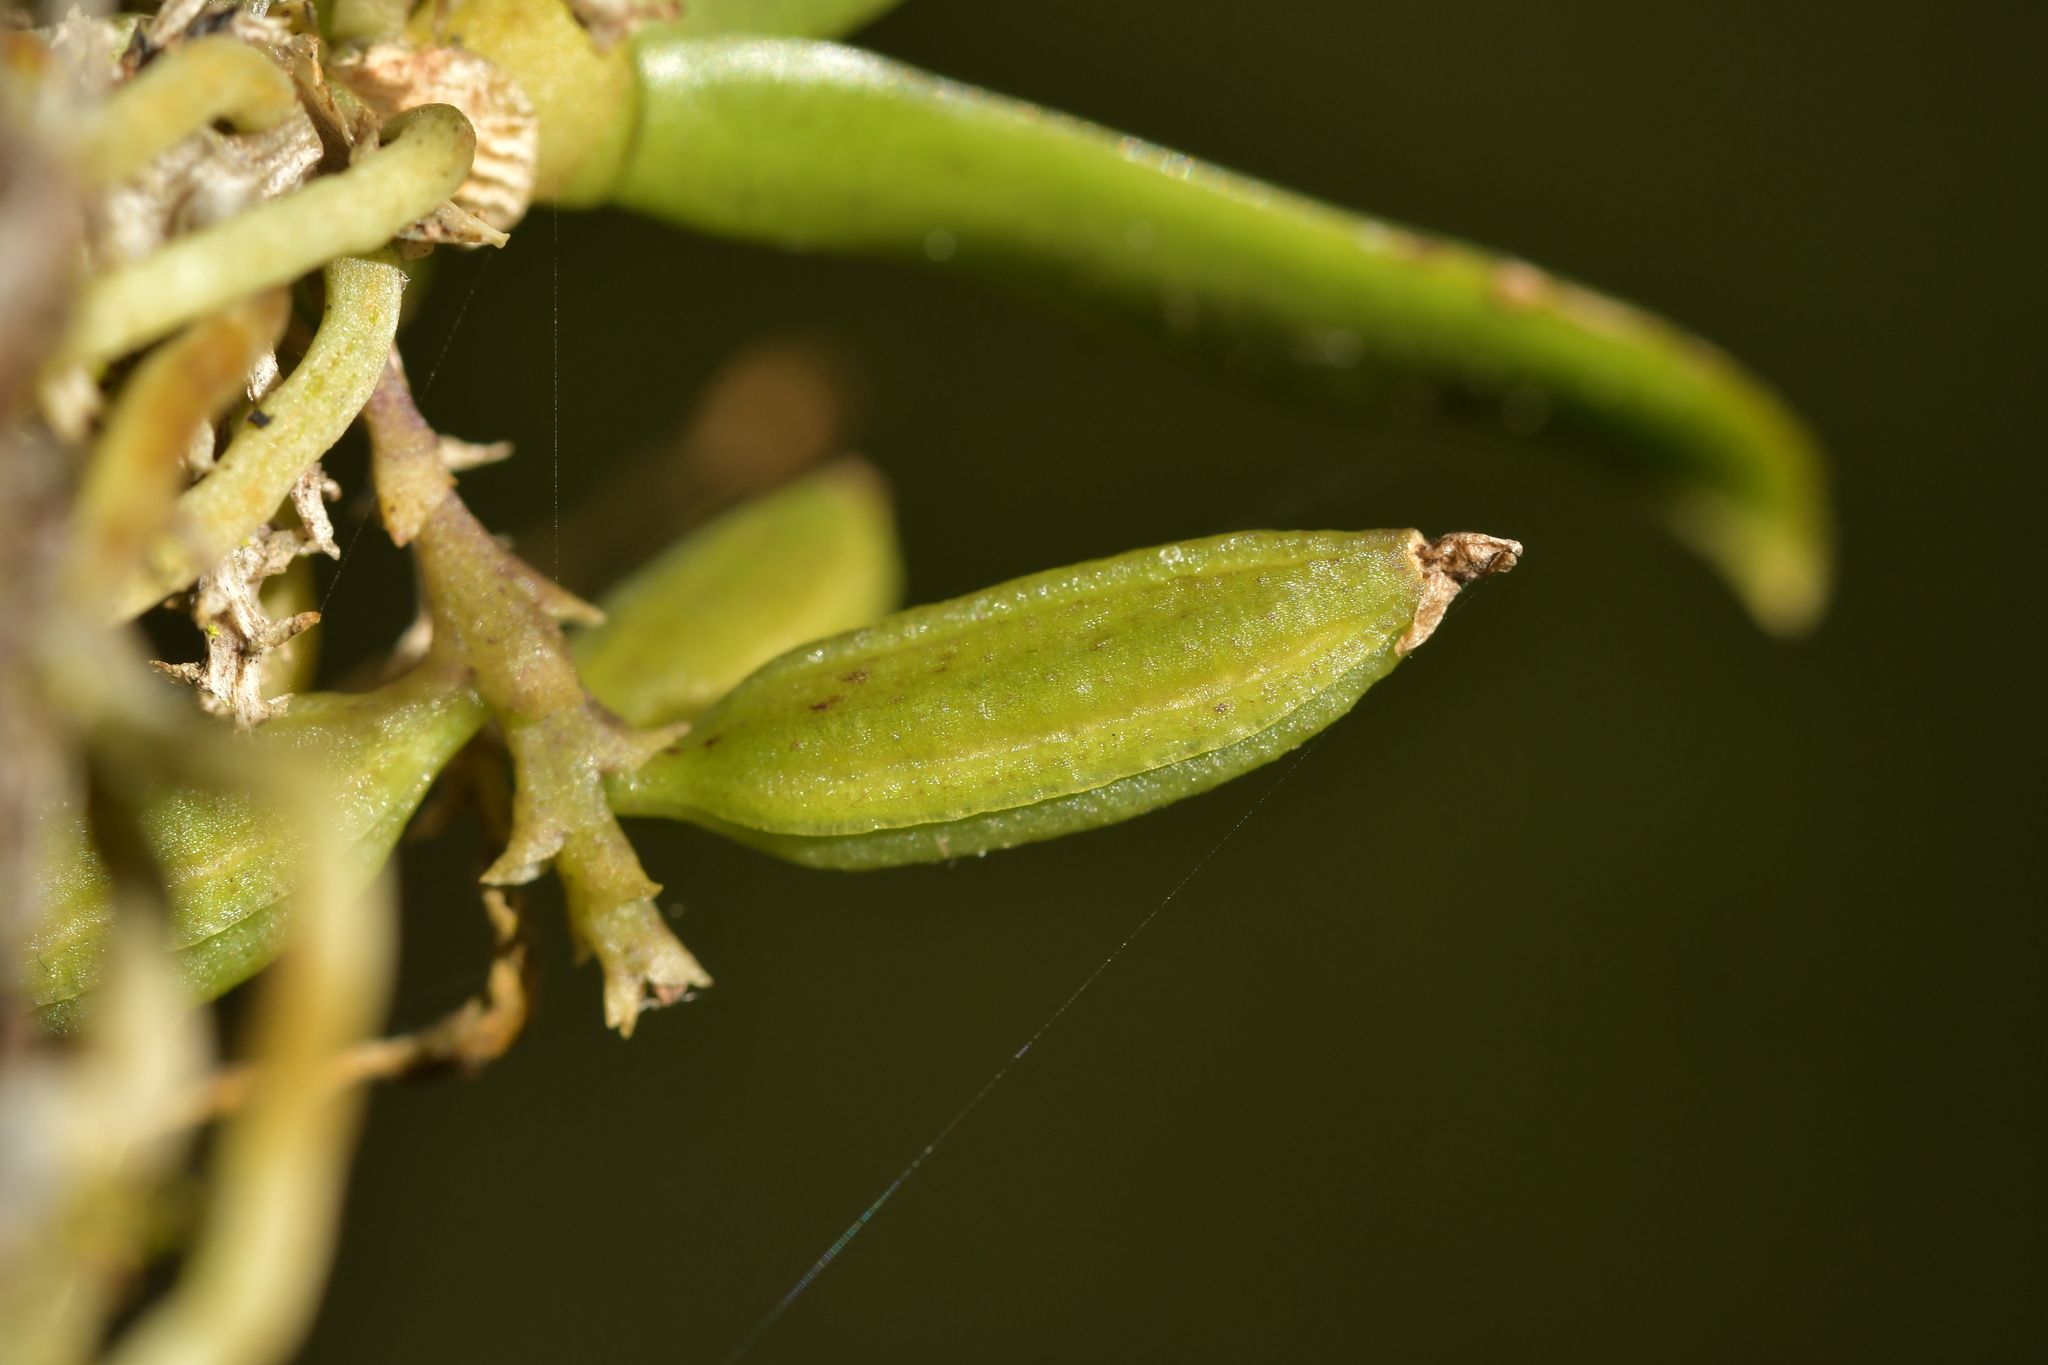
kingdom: Plantae
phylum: Tracheophyta
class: Liliopsida
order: Asparagales
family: Orchidaceae
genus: Drymoanthus
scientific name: Drymoanthus adversus
